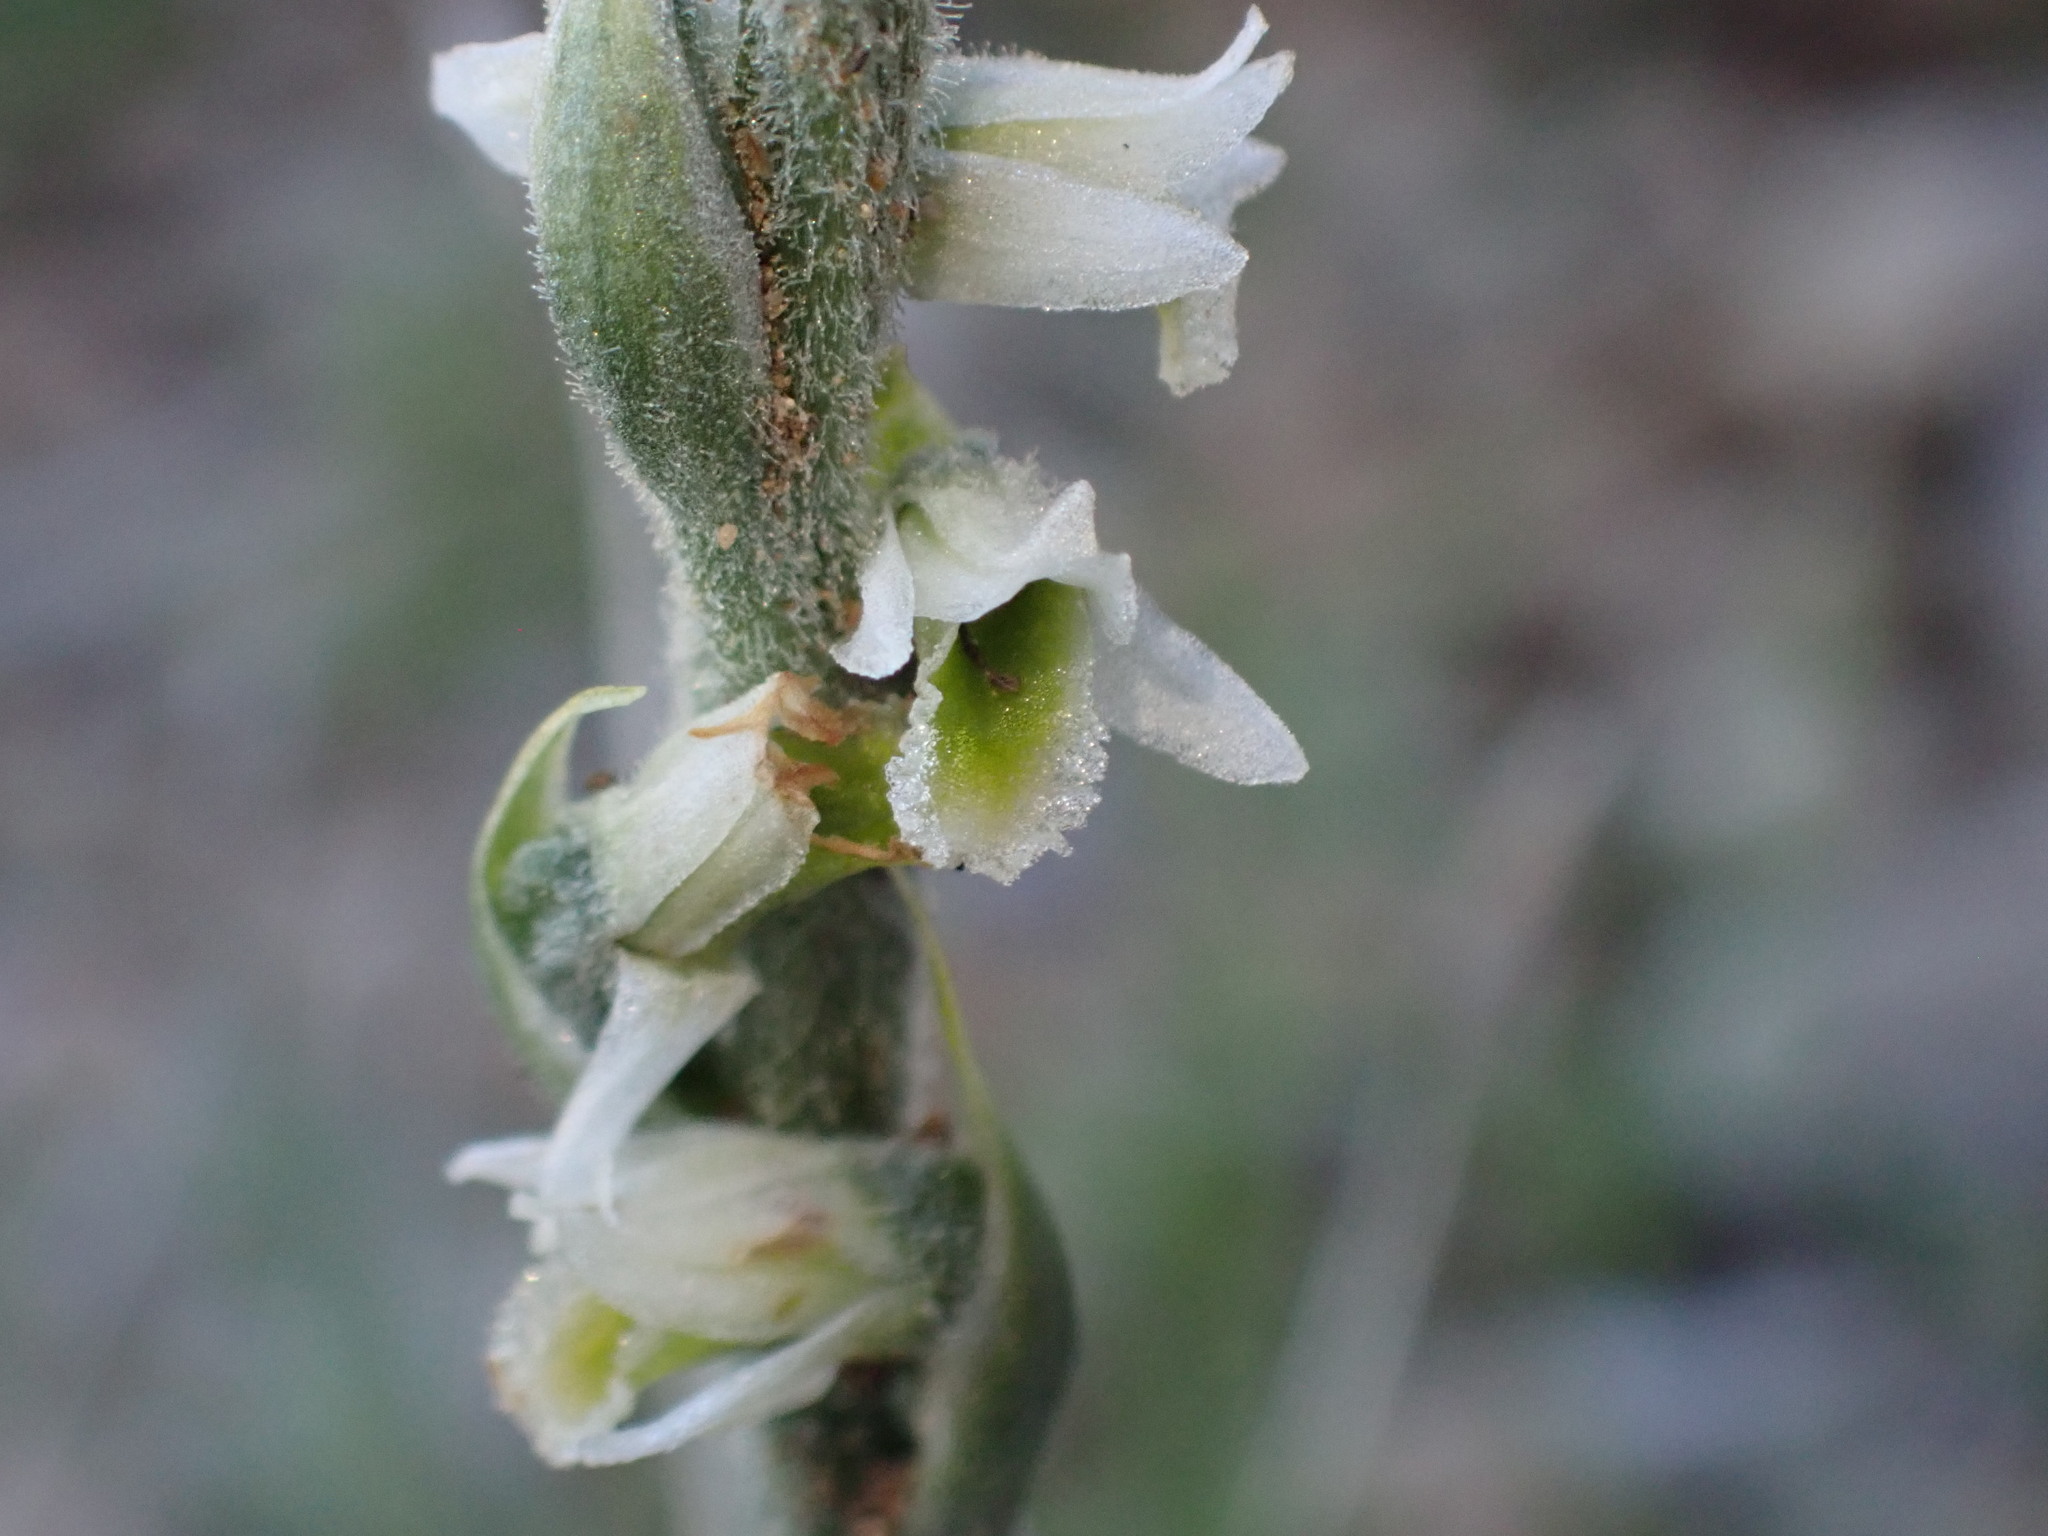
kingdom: Plantae
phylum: Tracheophyta
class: Liliopsida
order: Asparagales
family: Orchidaceae
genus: Spiranthes
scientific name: Spiranthes spiralis
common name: Autumn lady's-tresses
